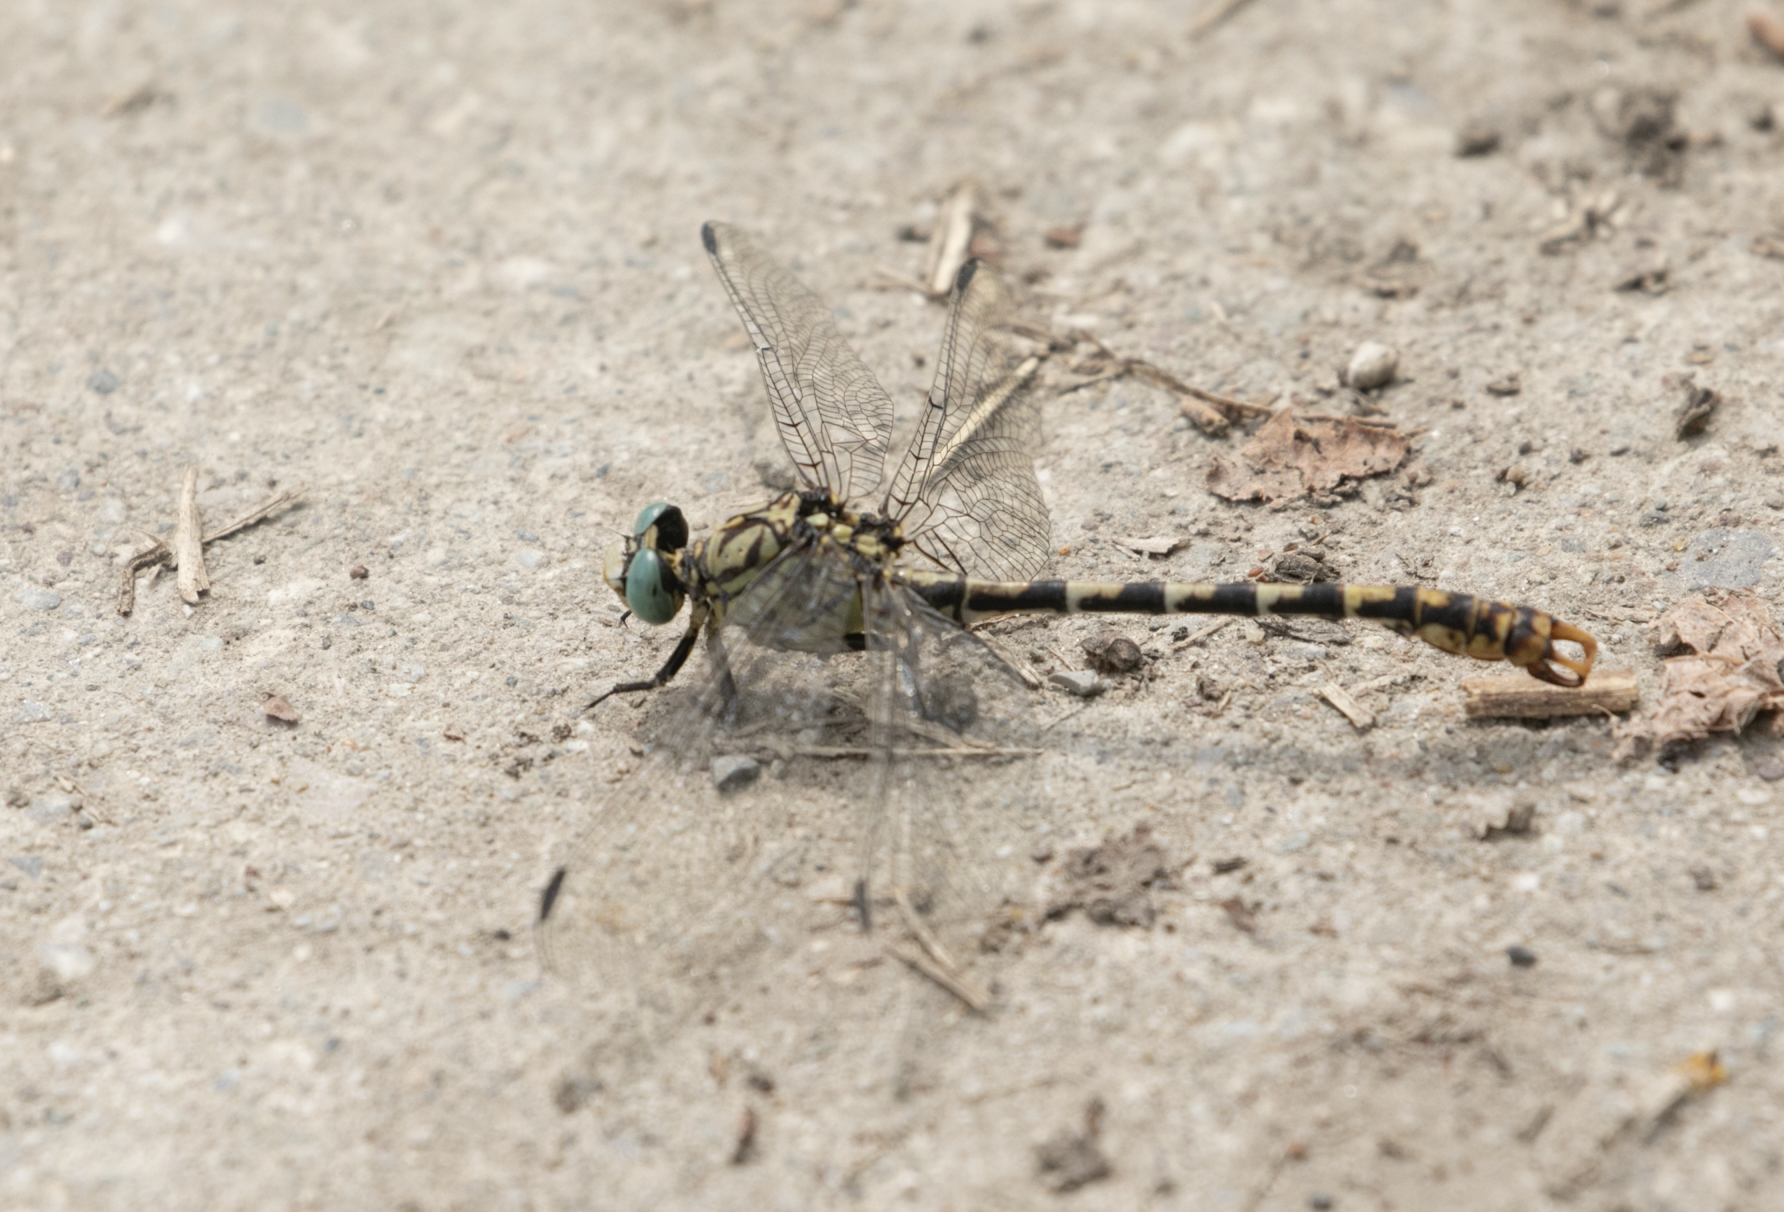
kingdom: Animalia
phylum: Arthropoda
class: Insecta
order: Odonata
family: Gomphidae
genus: Onychogomphus
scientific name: Onychogomphus forcipatus
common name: Small pincertail
